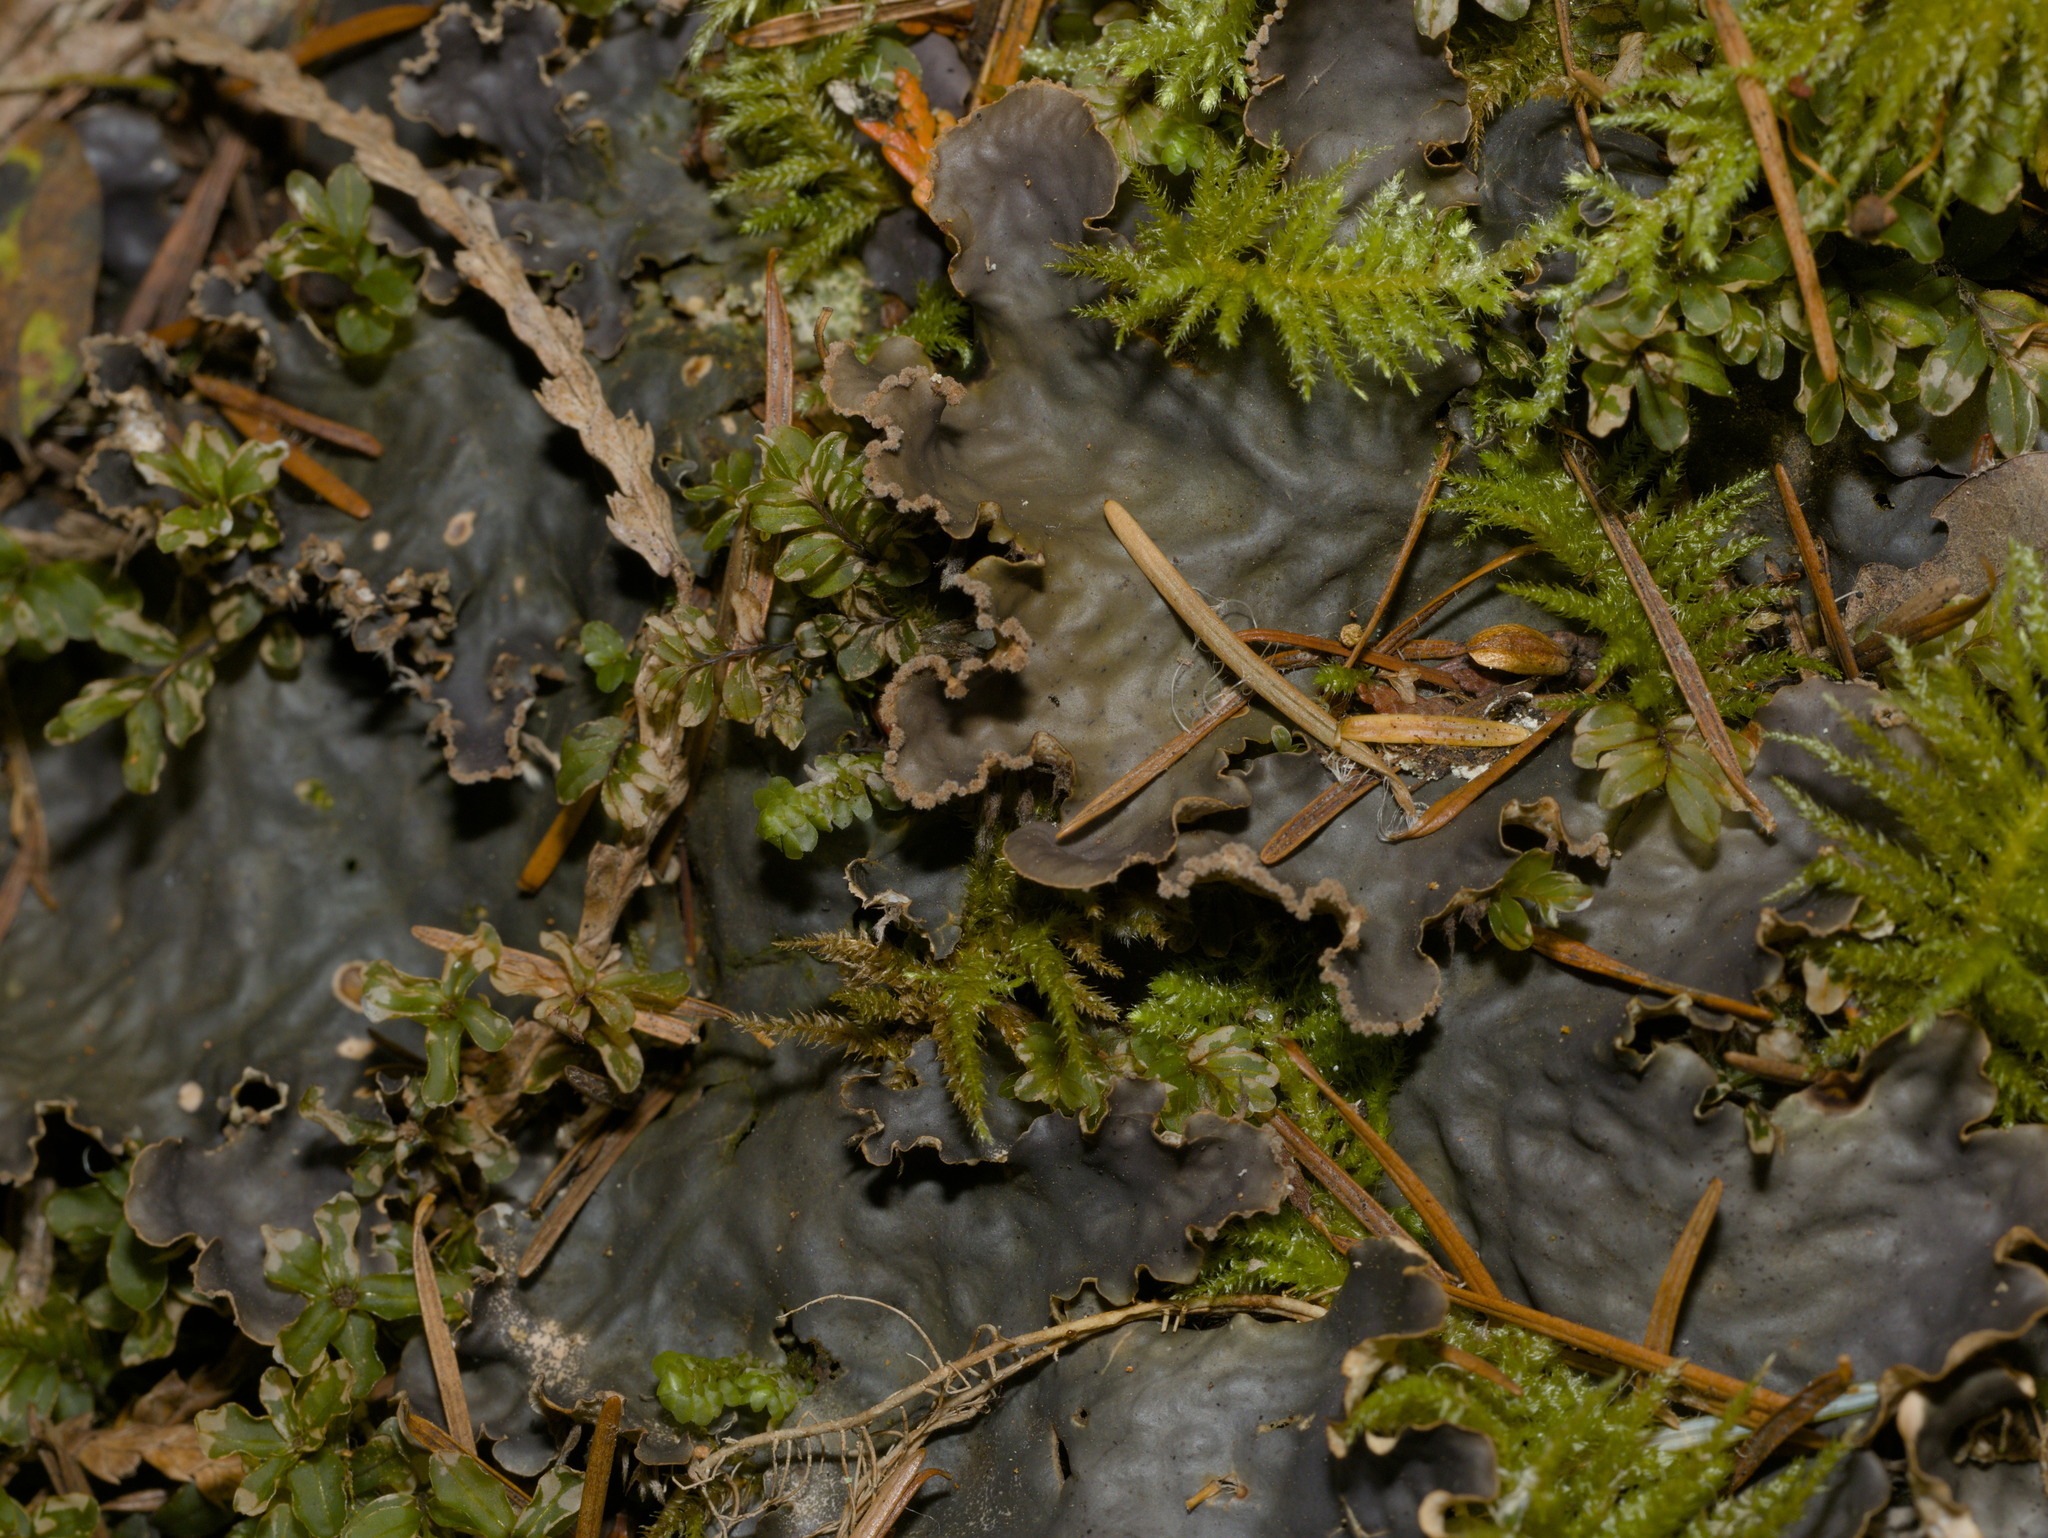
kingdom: Fungi
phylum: Ascomycota
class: Lecanoromycetes
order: Peltigerales
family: Peltigeraceae
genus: Peltigera
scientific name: Peltigera collina
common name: Gritty tree pelt lichen
